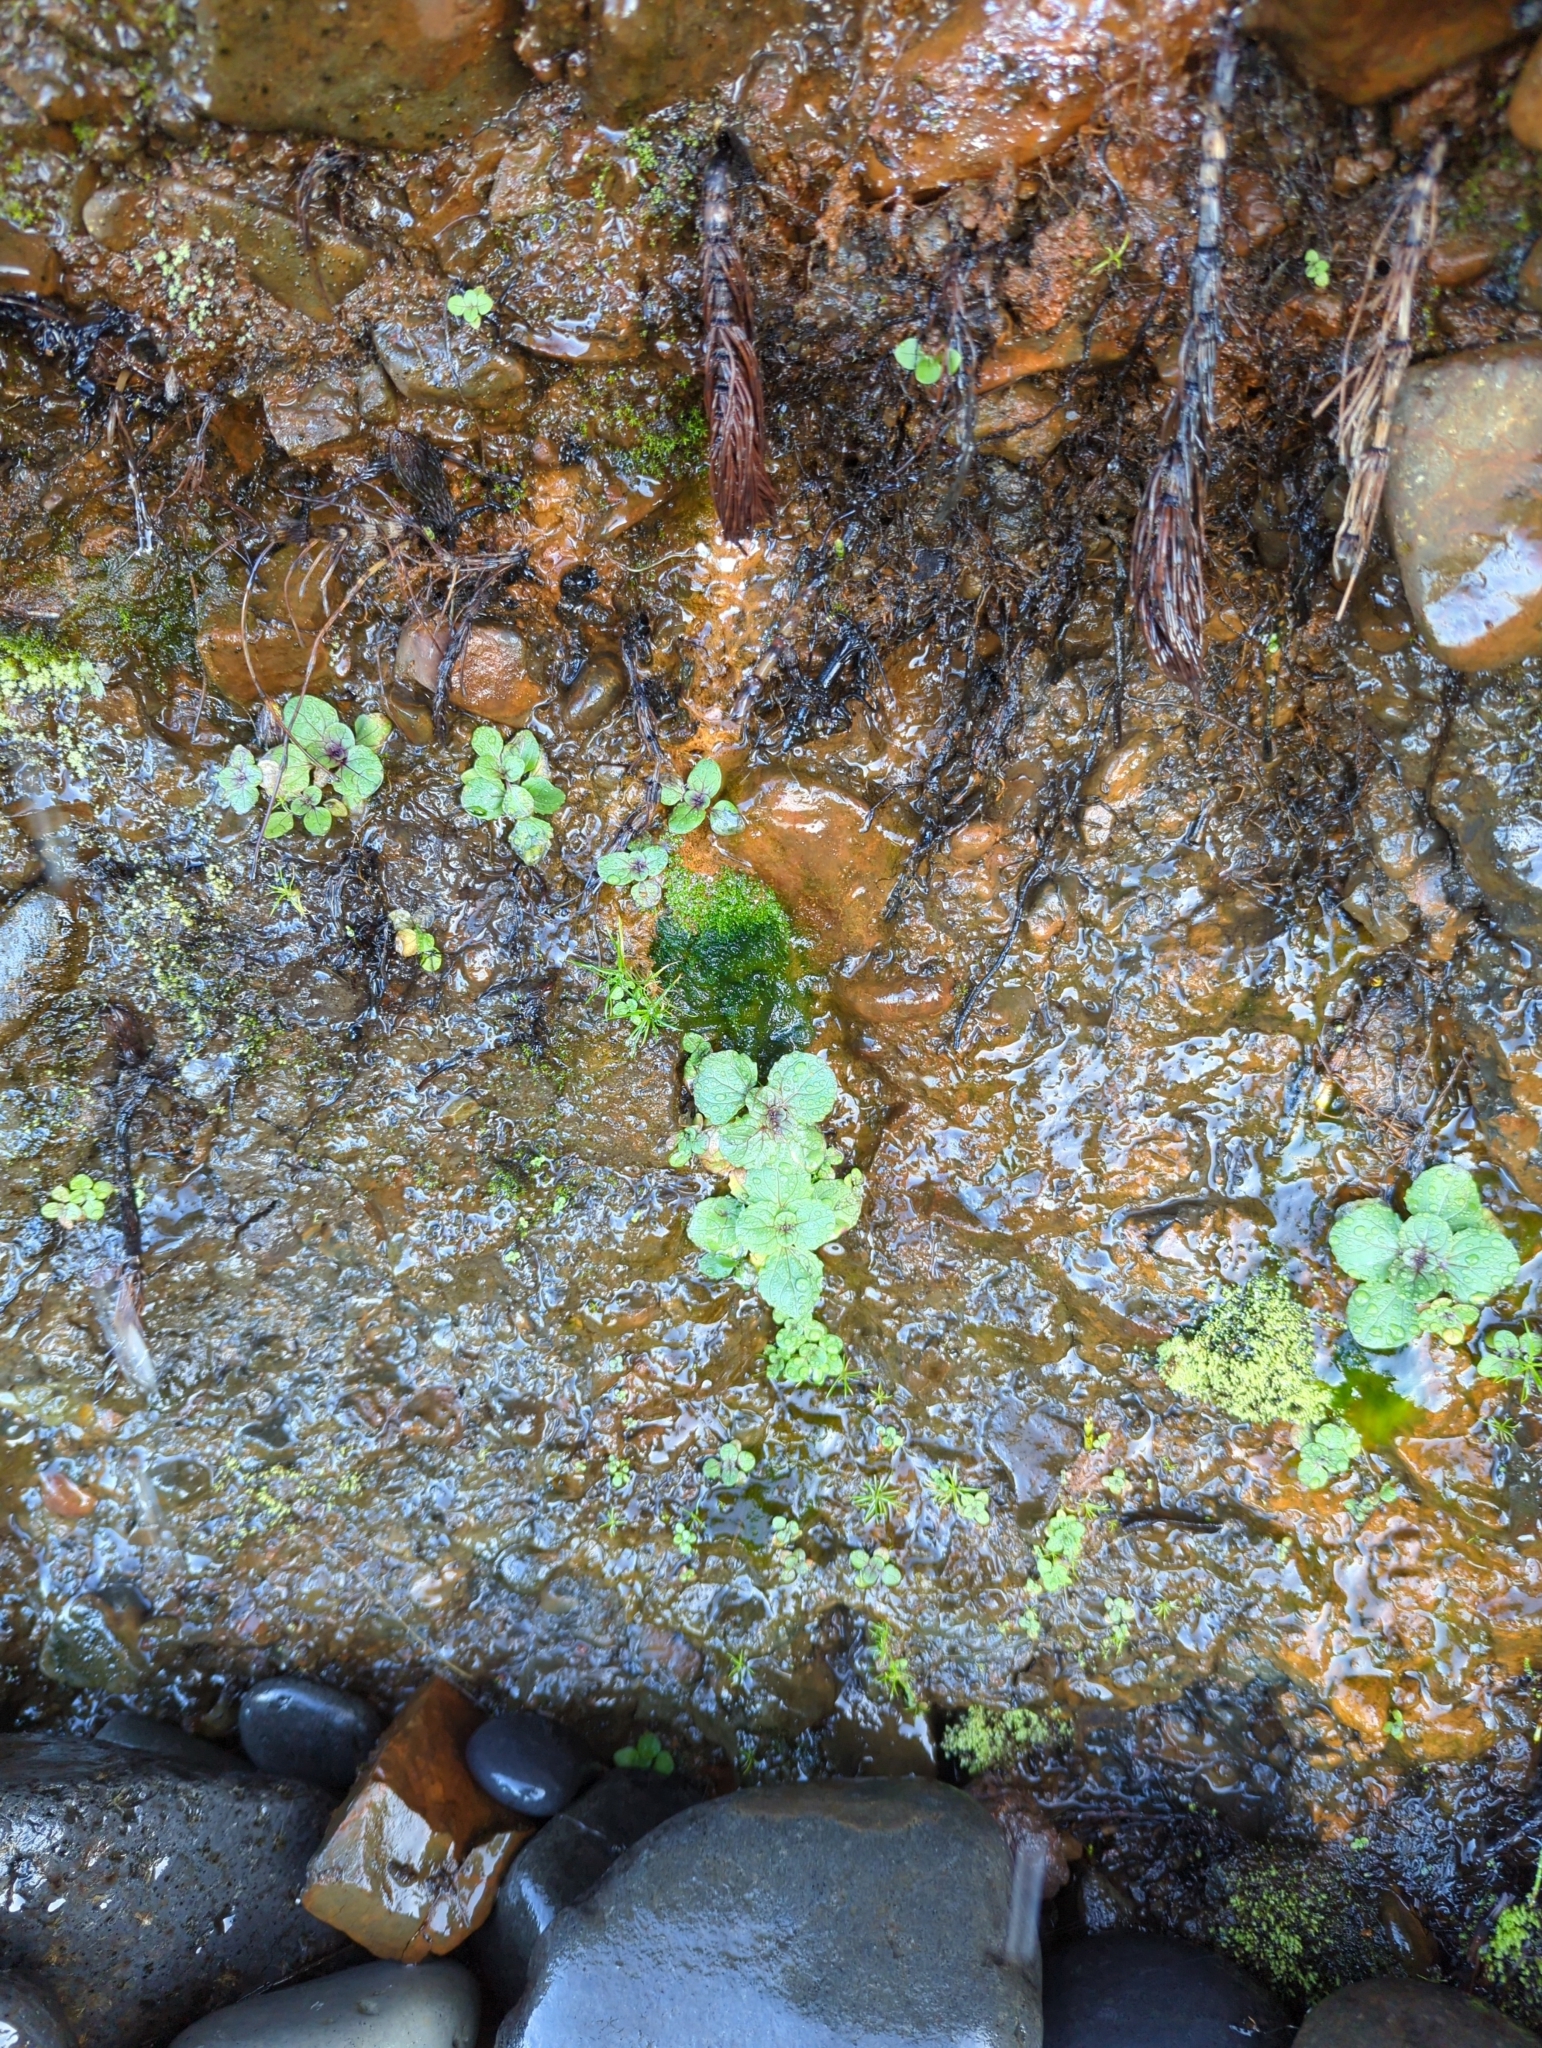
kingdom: Plantae
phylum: Tracheophyta
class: Magnoliopsida
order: Lamiales
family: Phrymaceae
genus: Erythranthe
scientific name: Erythranthe grandis
